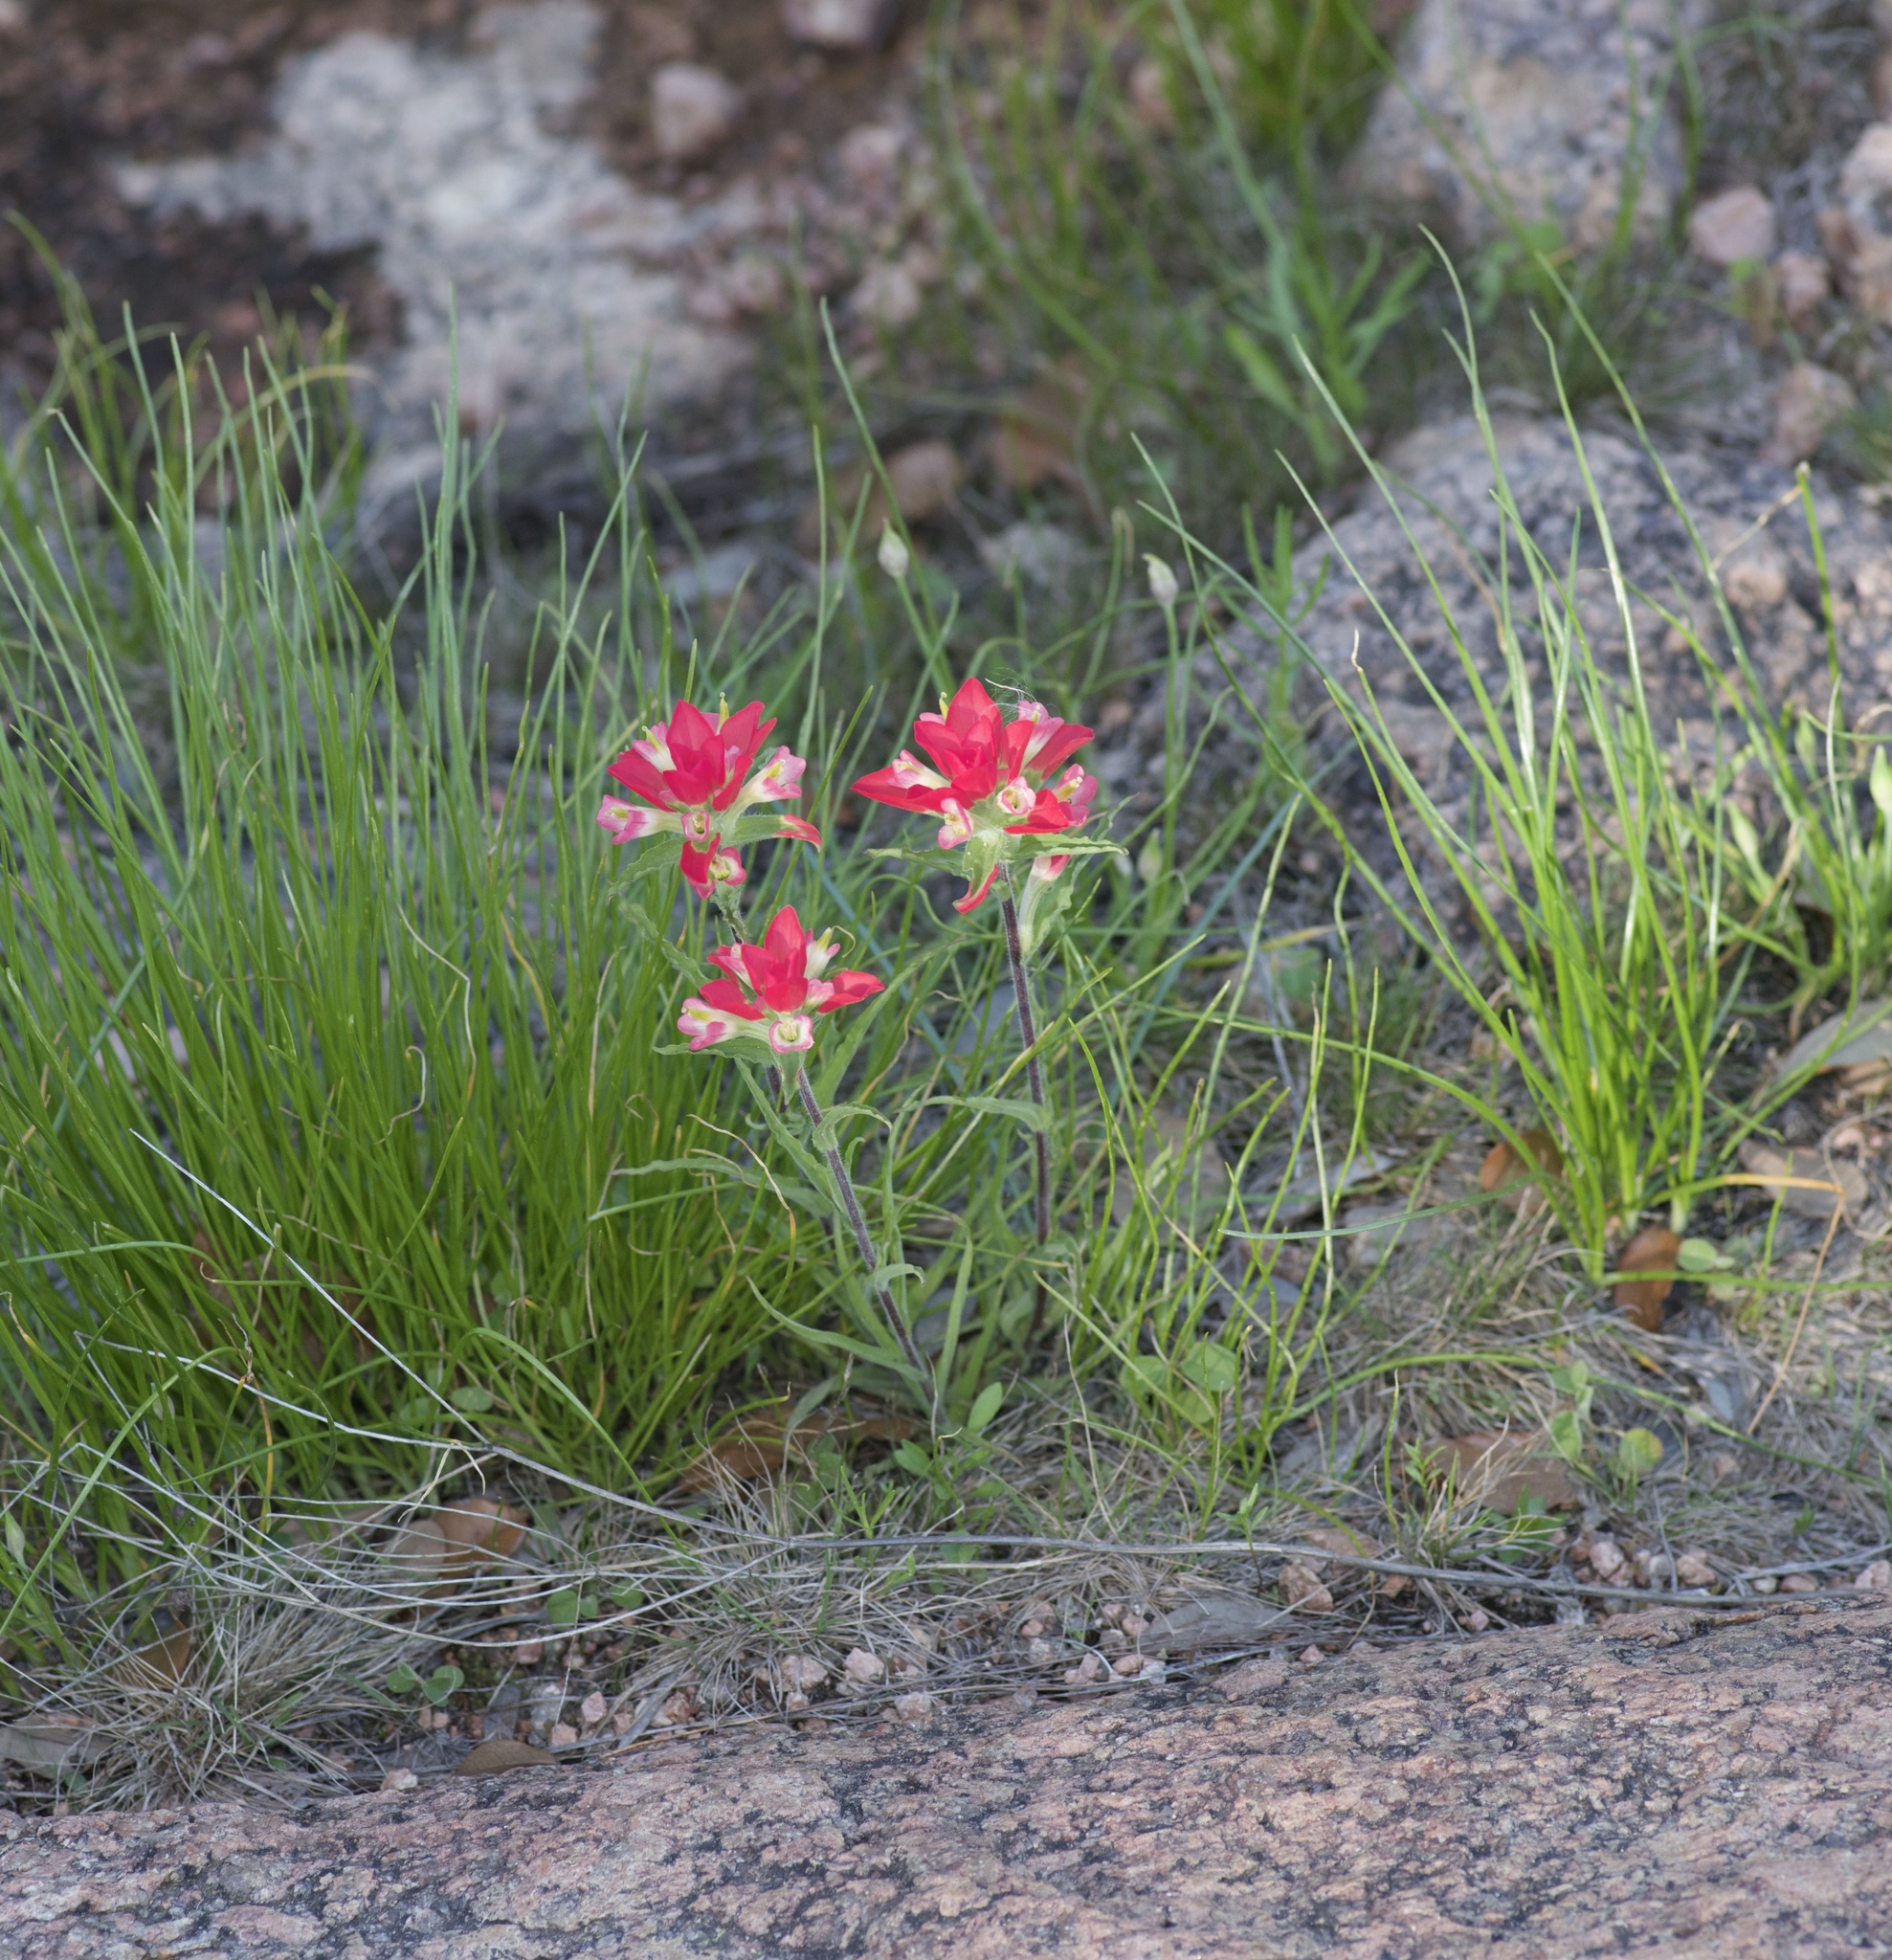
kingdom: Plantae
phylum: Tracheophyta
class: Magnoliopsida
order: Lamiales
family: Orobanchaceae
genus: Castilleja
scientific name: Castilleja indivisa
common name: Texas paintbrush
